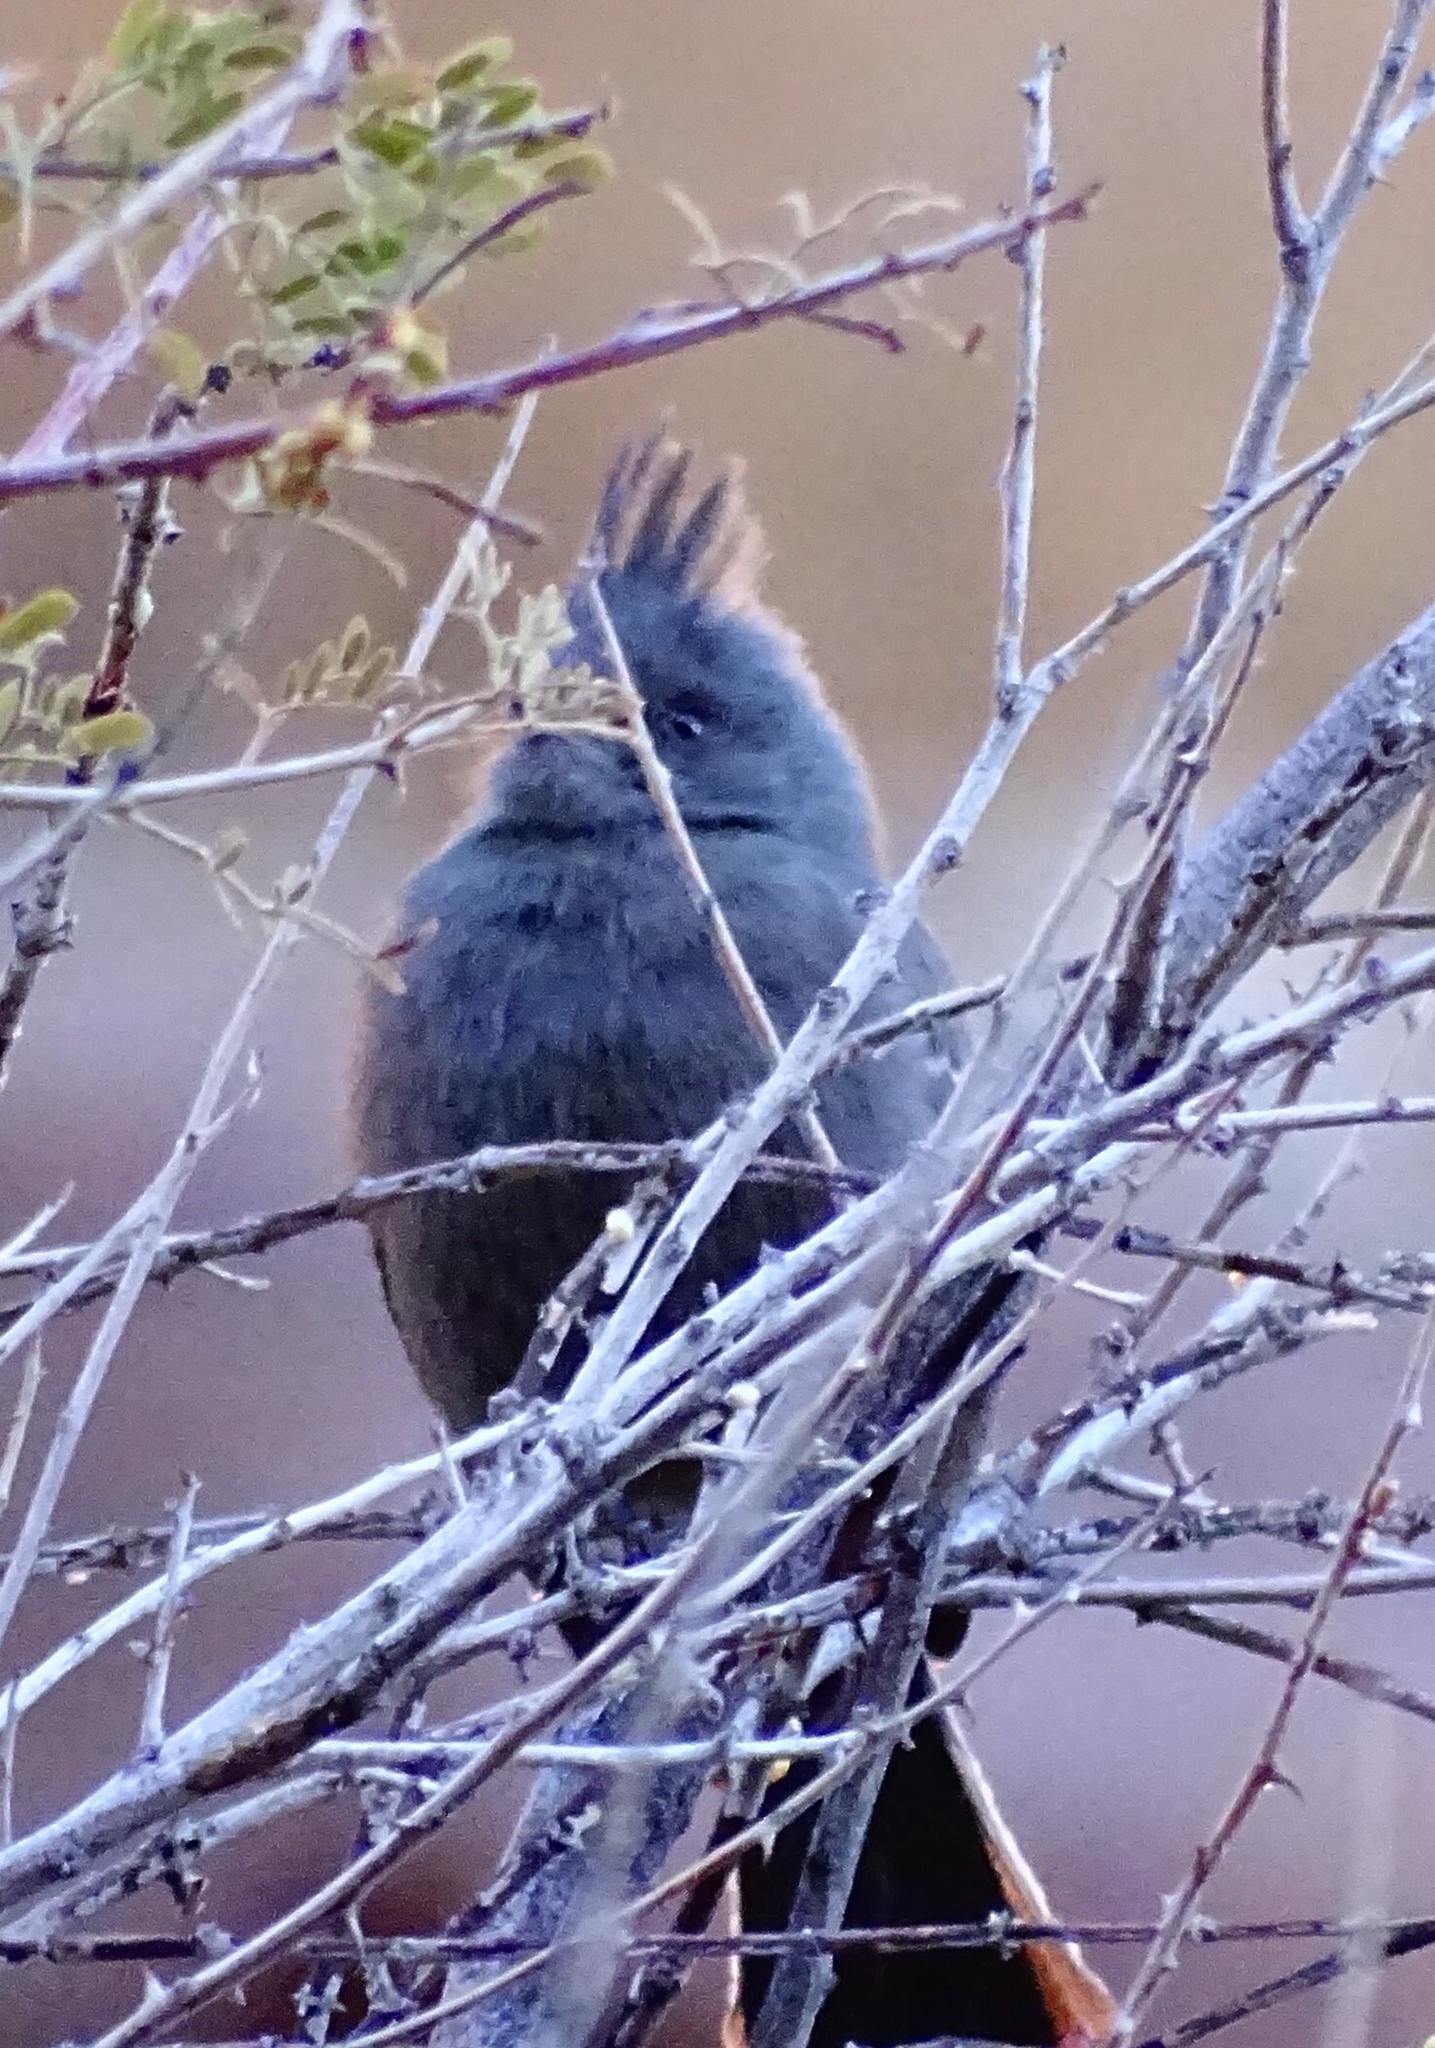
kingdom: Animalia
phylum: Chordata
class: Aves
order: Passeriformes
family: Ptilogonatidae
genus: Phainopepla
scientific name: Phainopepla nitens
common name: Phainopepla
